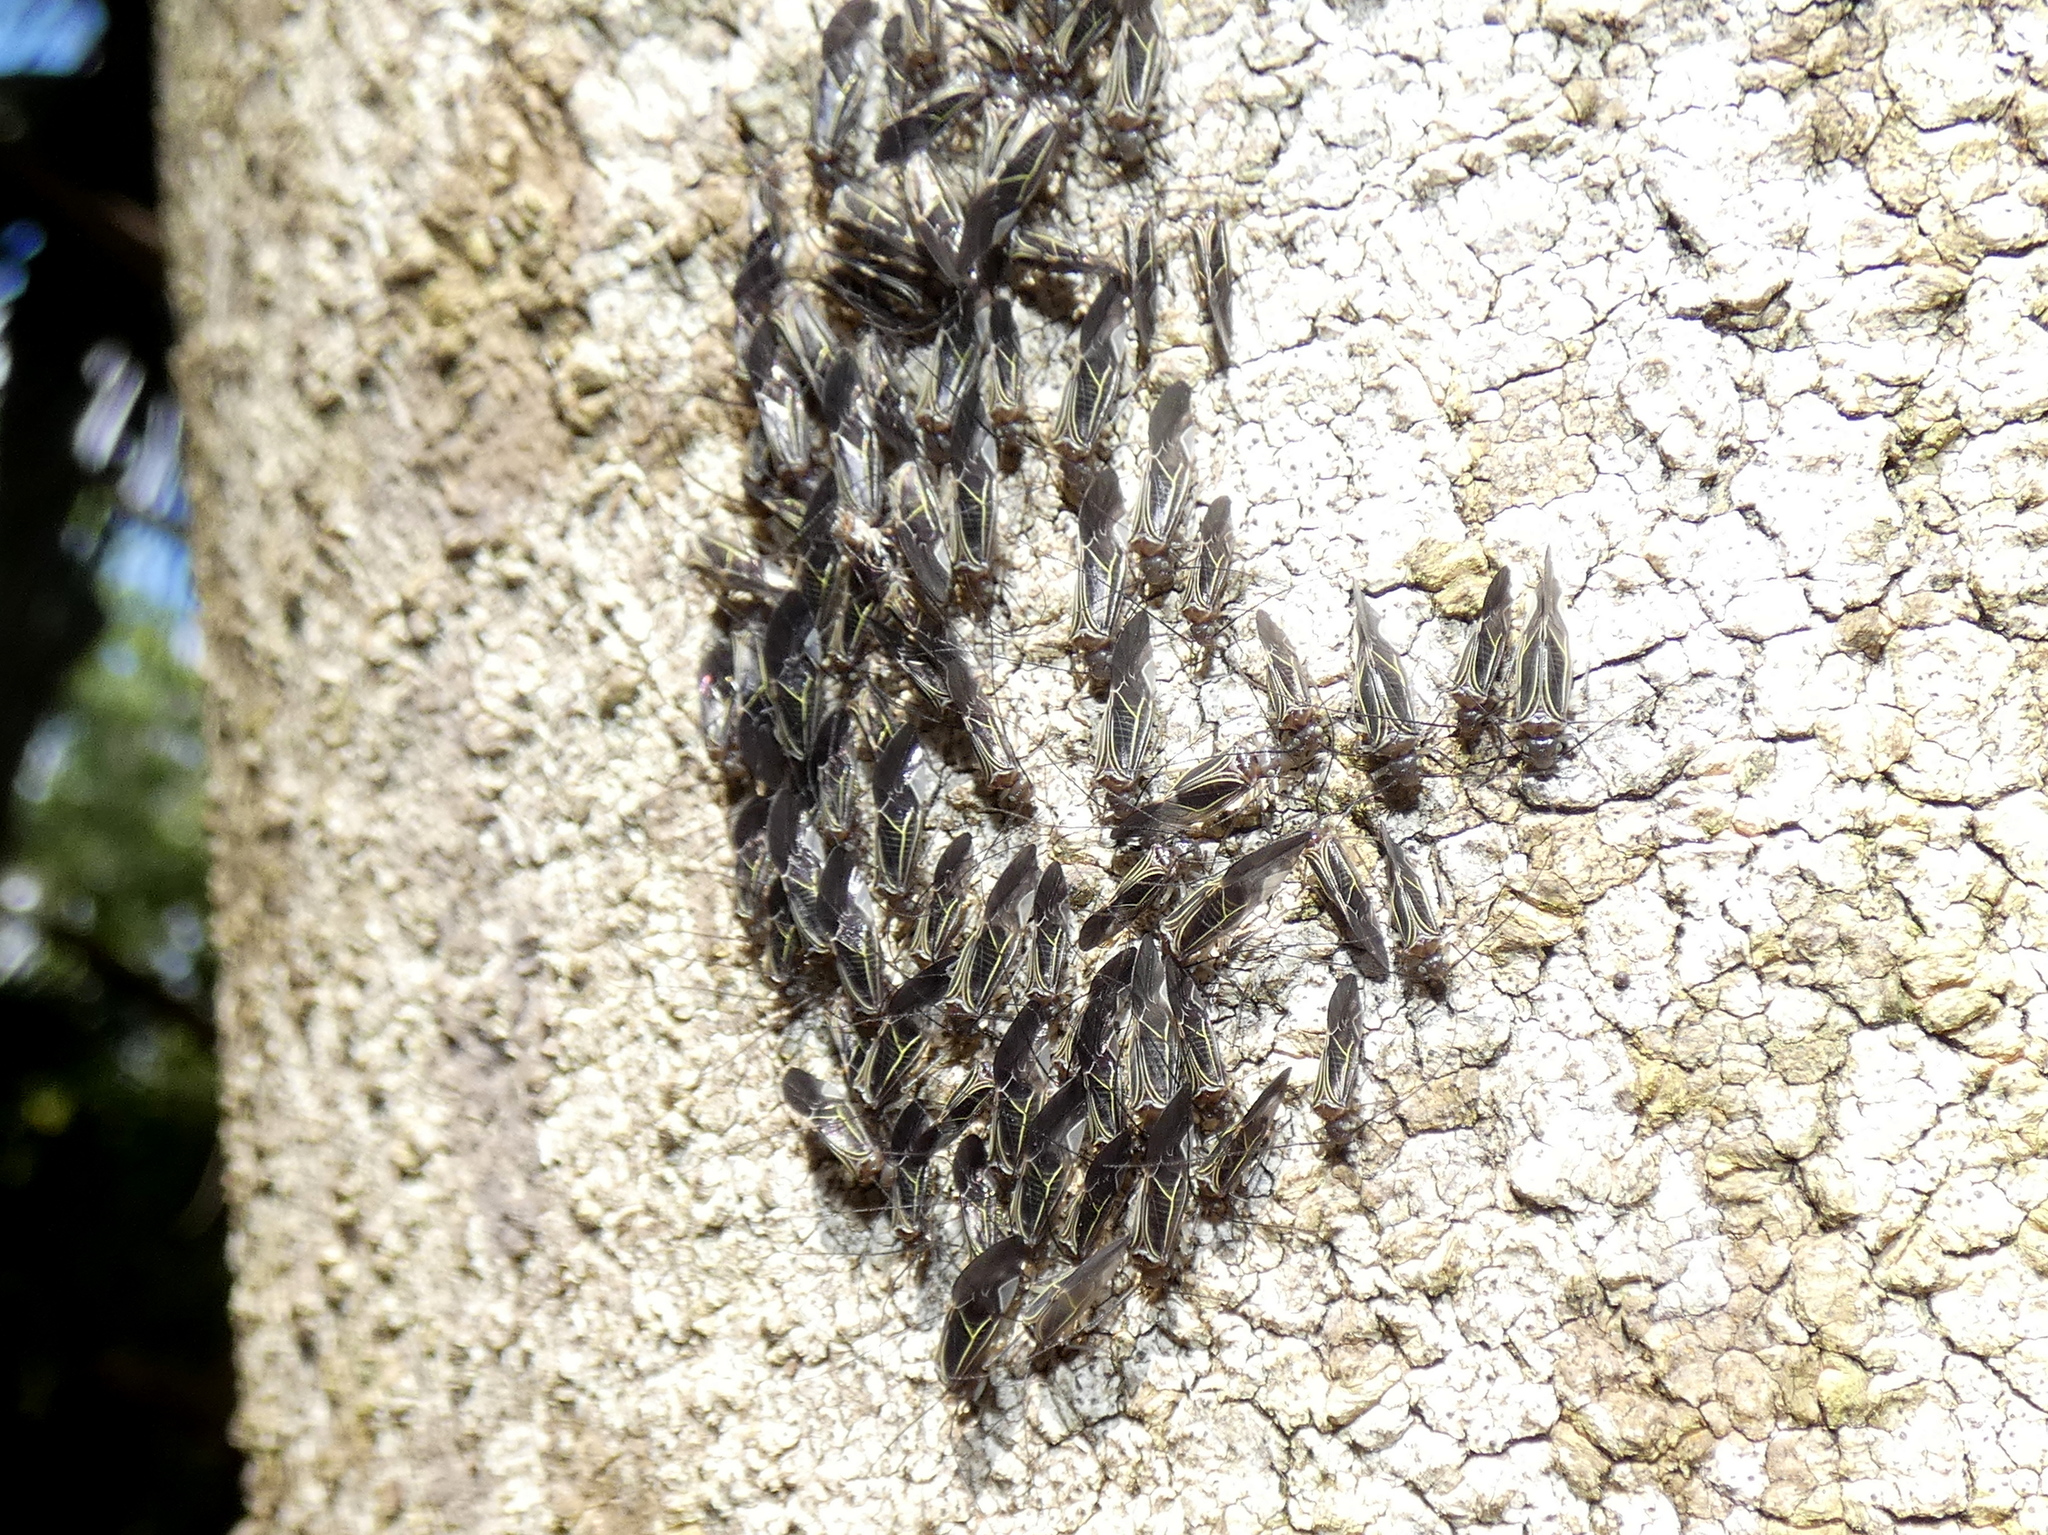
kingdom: Animalia
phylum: Arthropoda
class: Insecta
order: Psocodea
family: Psocidae
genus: Cerastipsocus
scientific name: Cerastipsocus venosus
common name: Tree cattle
